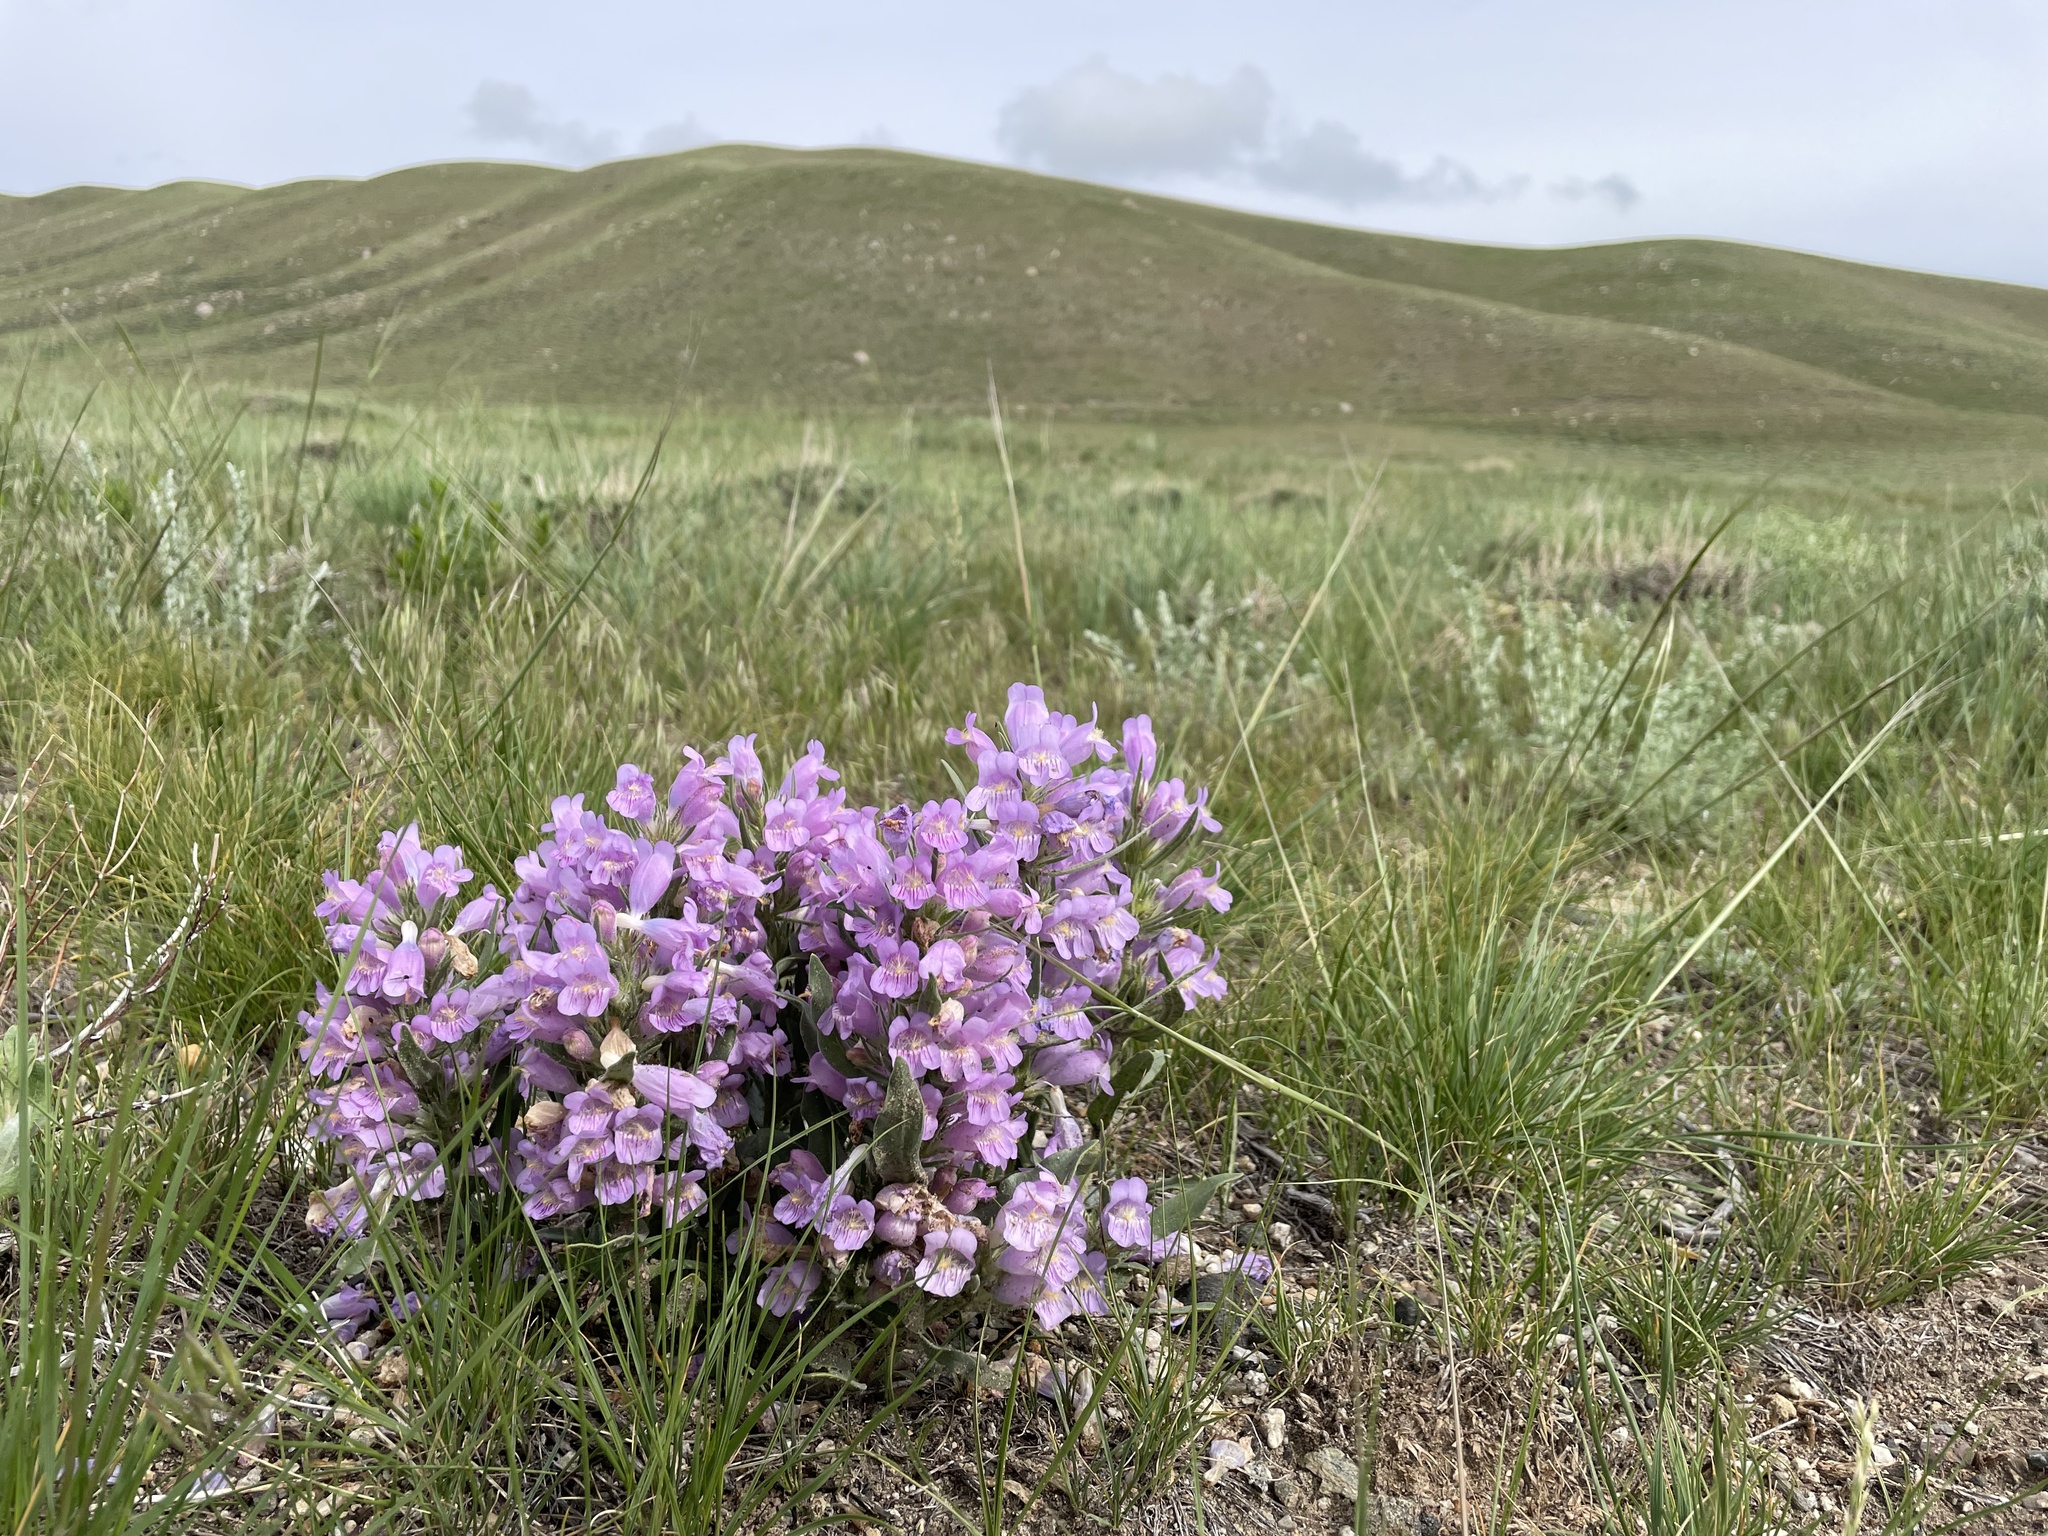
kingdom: Plantae
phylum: Tracheophyta
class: Magnoliopsida
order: Lamiales
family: Plantaginaceae
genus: Penstemon
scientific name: Penstemon eriantherus
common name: Crested beardtongue
